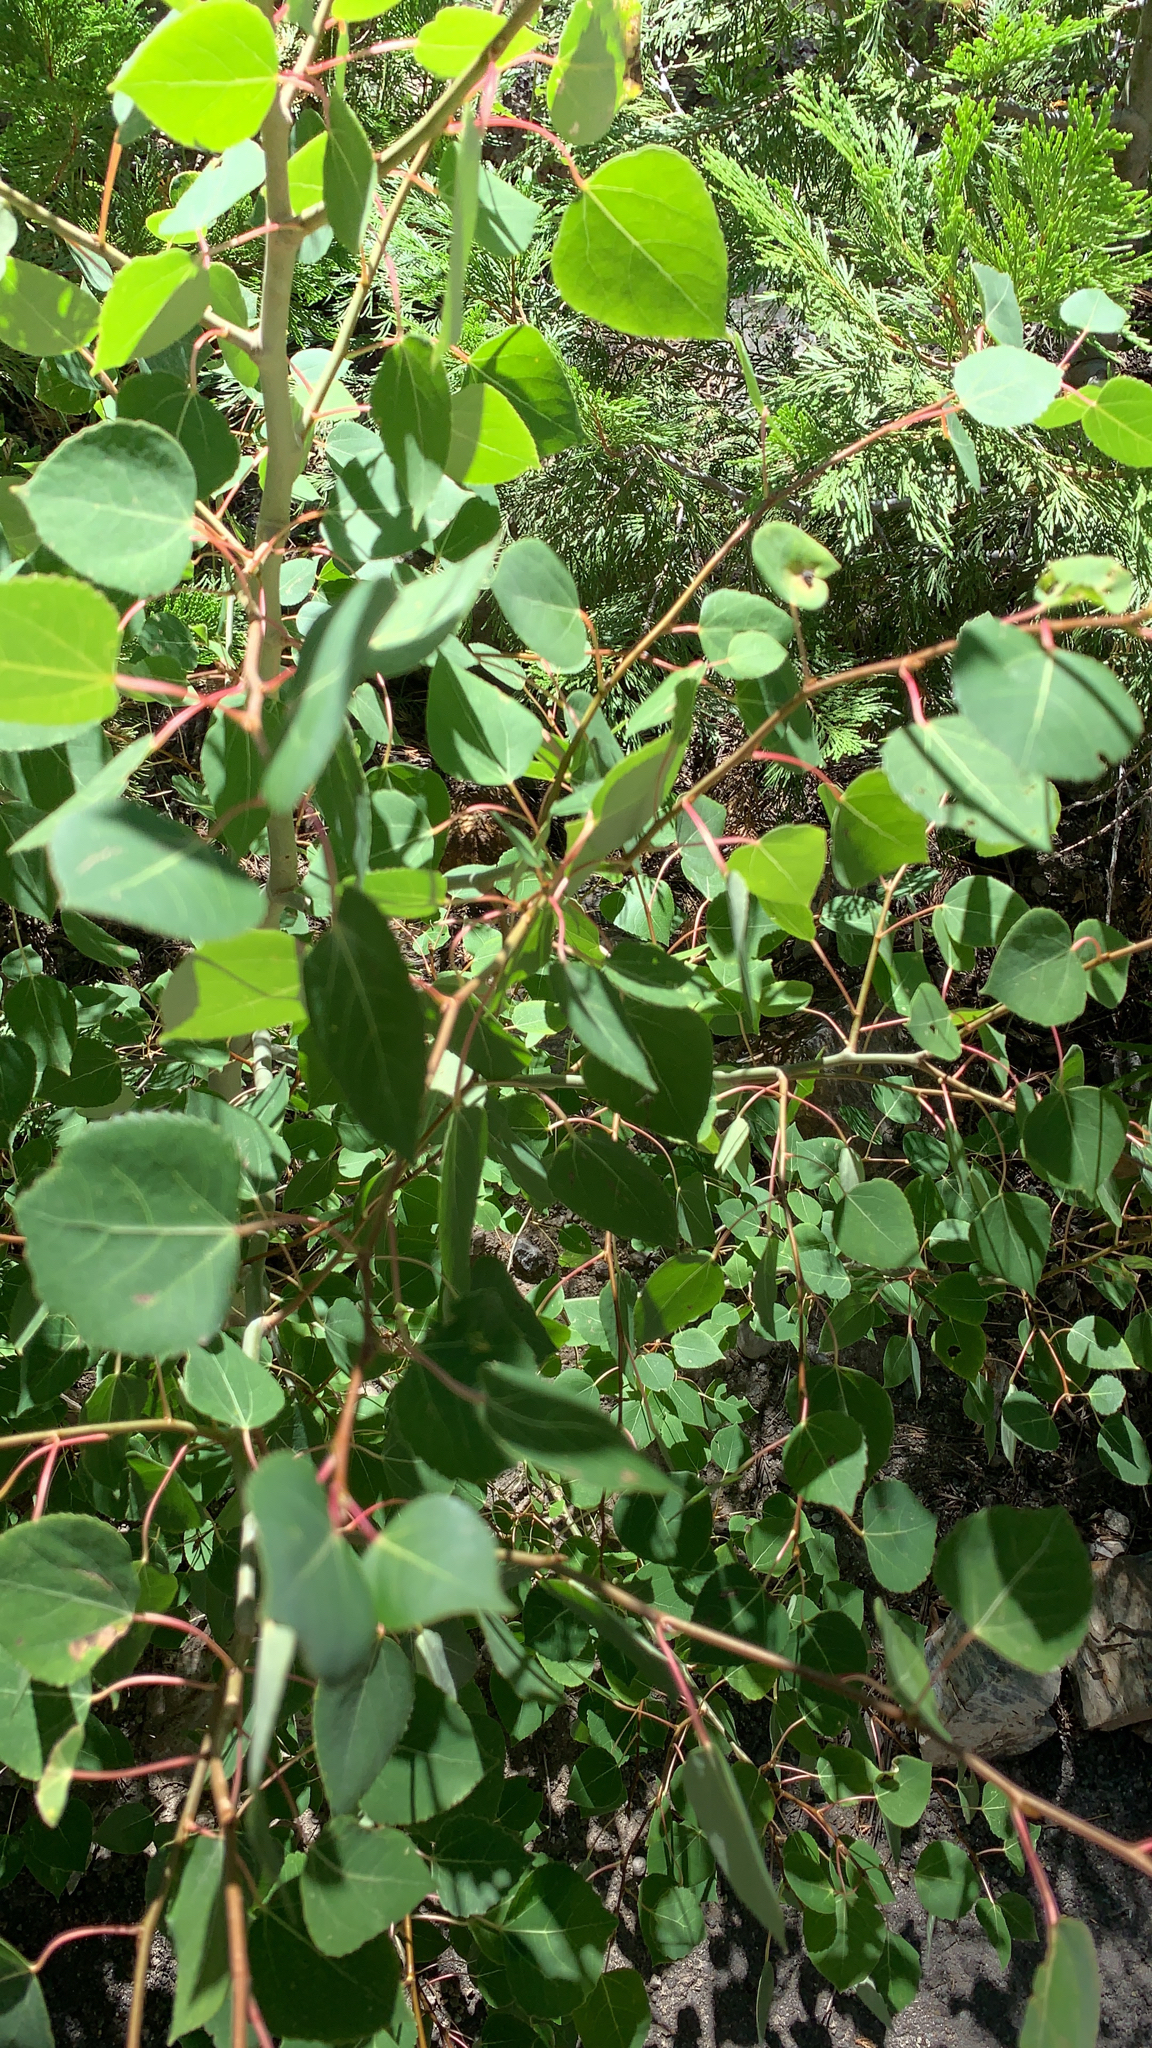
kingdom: Plantae
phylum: Tracheophyta
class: Magnoliopsida
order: Malpighiales
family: Salicaceae
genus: Populus
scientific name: Populus tremuloides
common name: Quaking aspen
